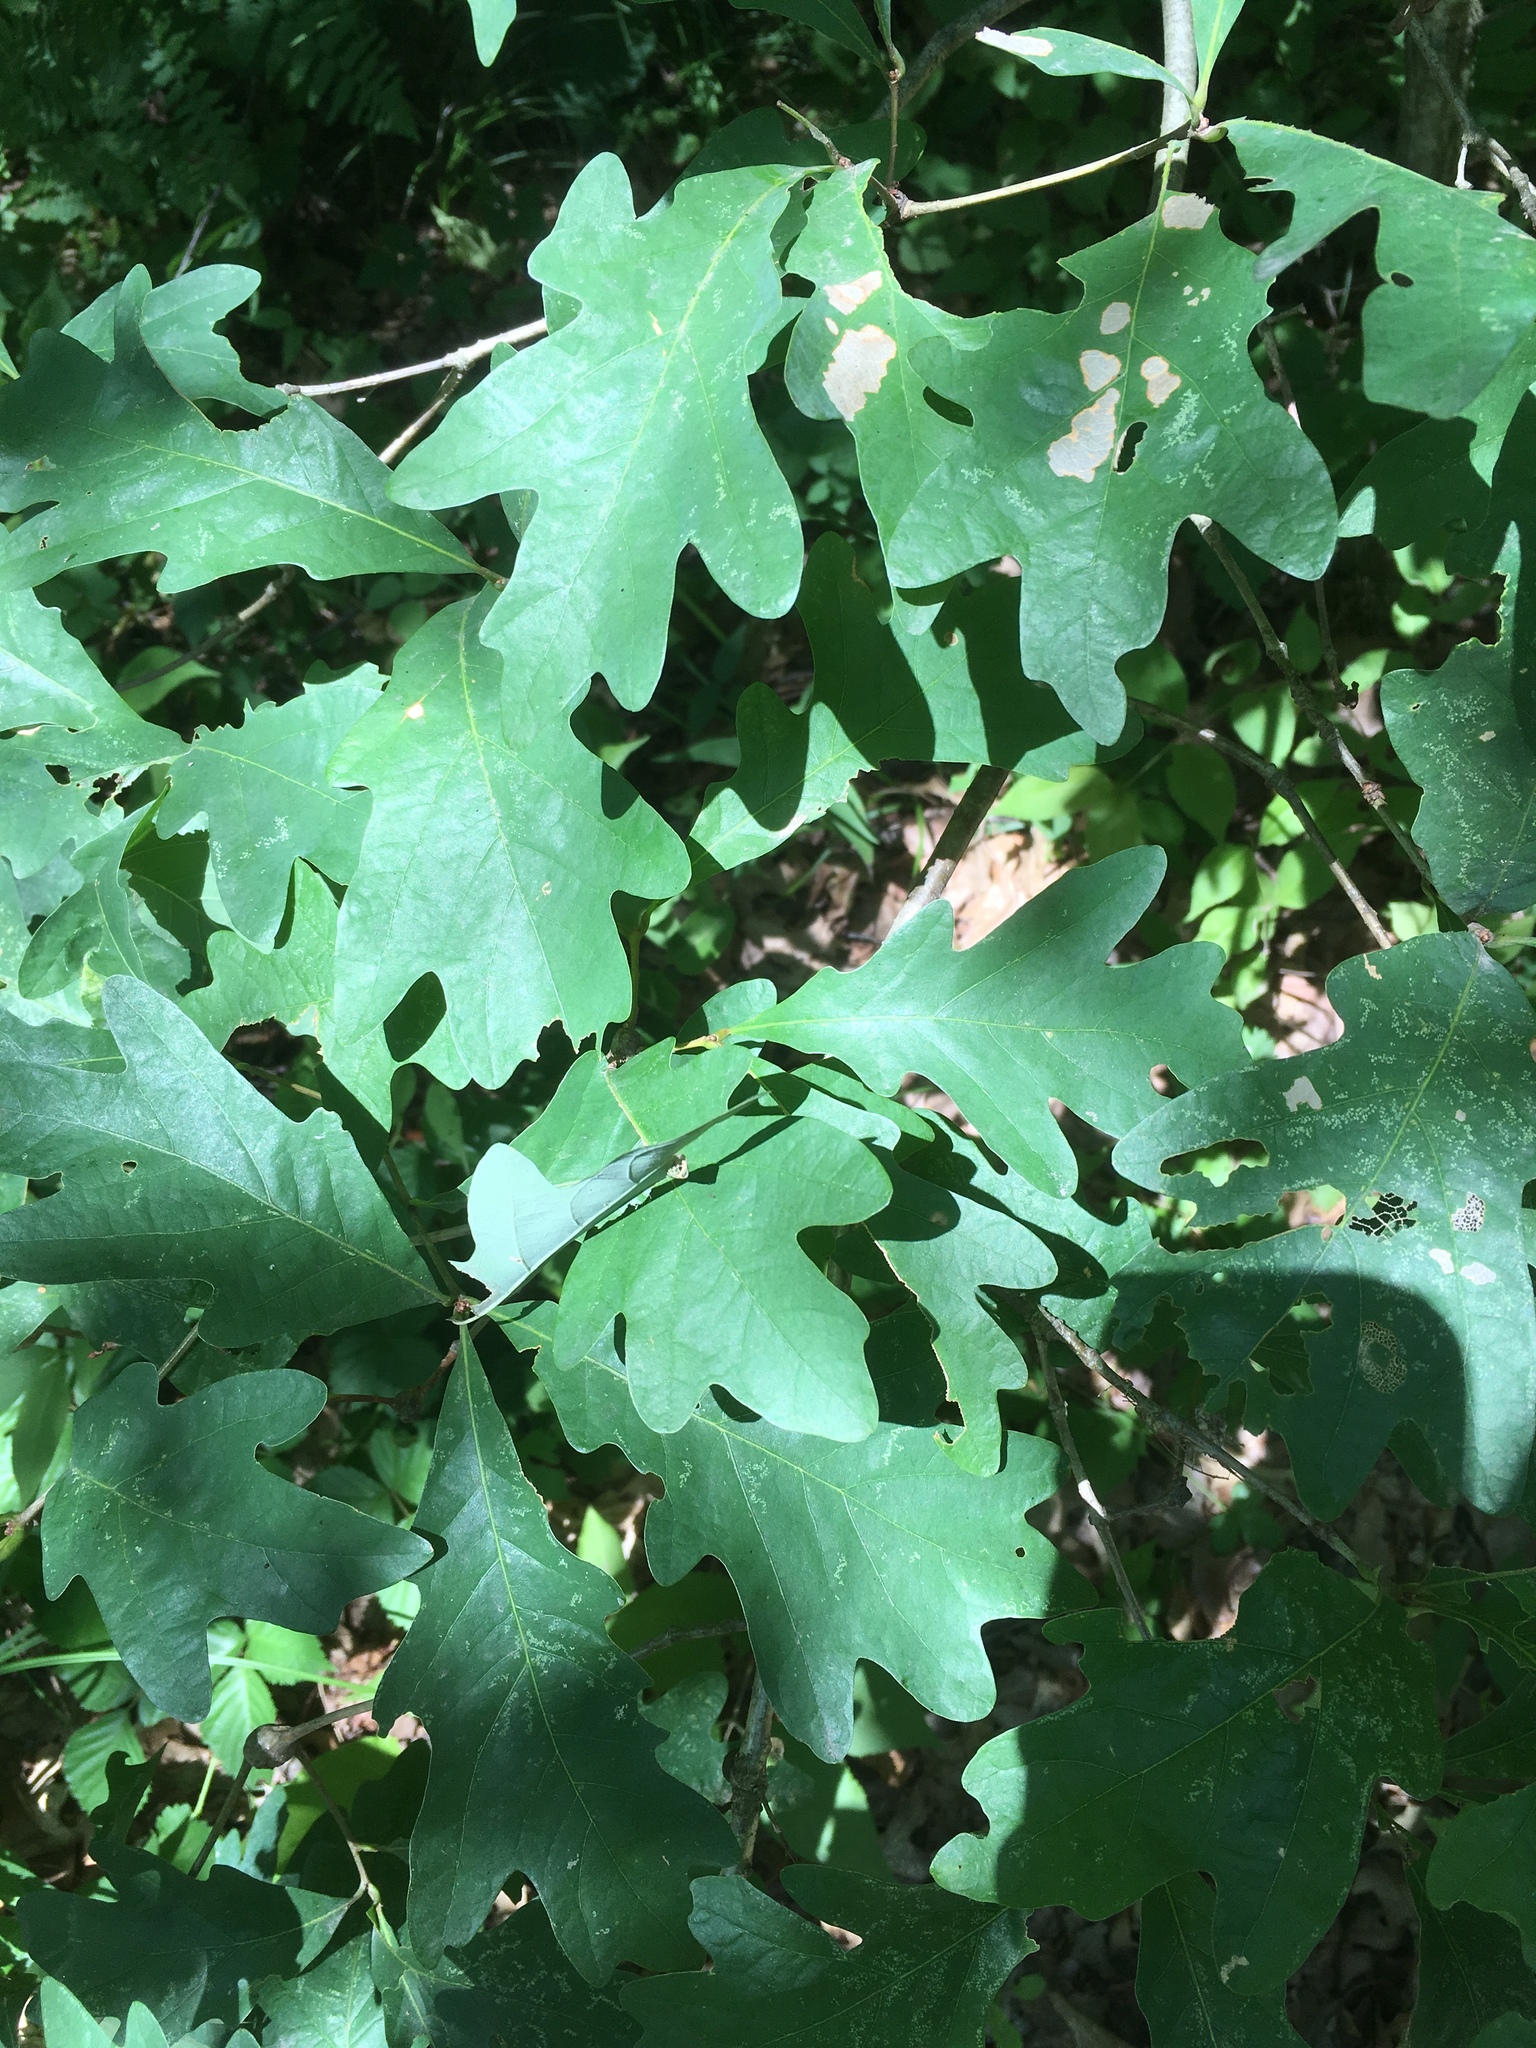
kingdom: Plantae
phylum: Tracheophyta
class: Magnoliopsida
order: Fagales
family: Fagaceae
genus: Quercus
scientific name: Quercus alba
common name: White oak
